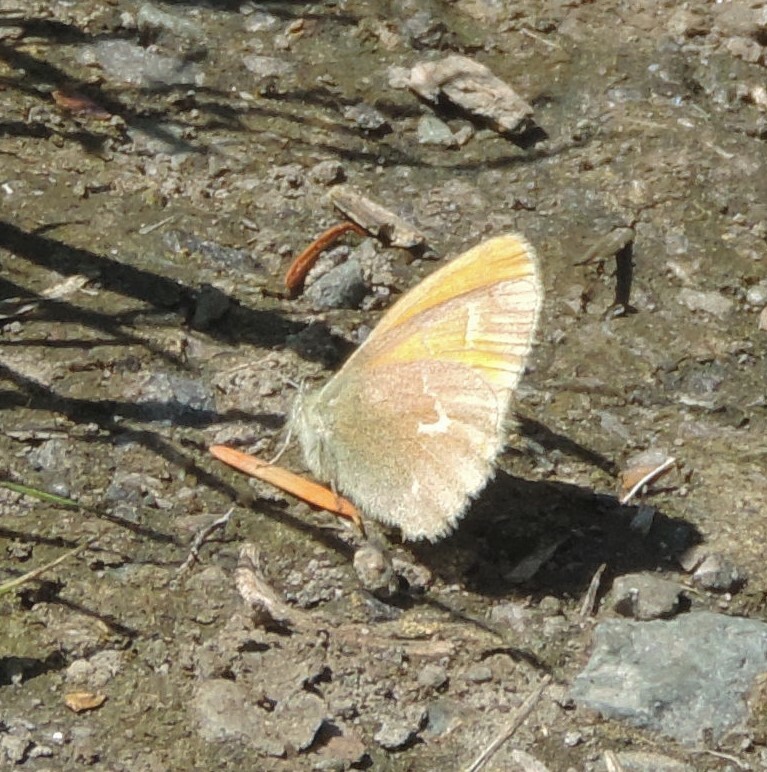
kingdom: Animalia
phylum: Arthropoda
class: Insecta
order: Lepidoptera
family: Nymphalidae
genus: Coenonympha
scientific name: Coenonympha california
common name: Common ringlet
